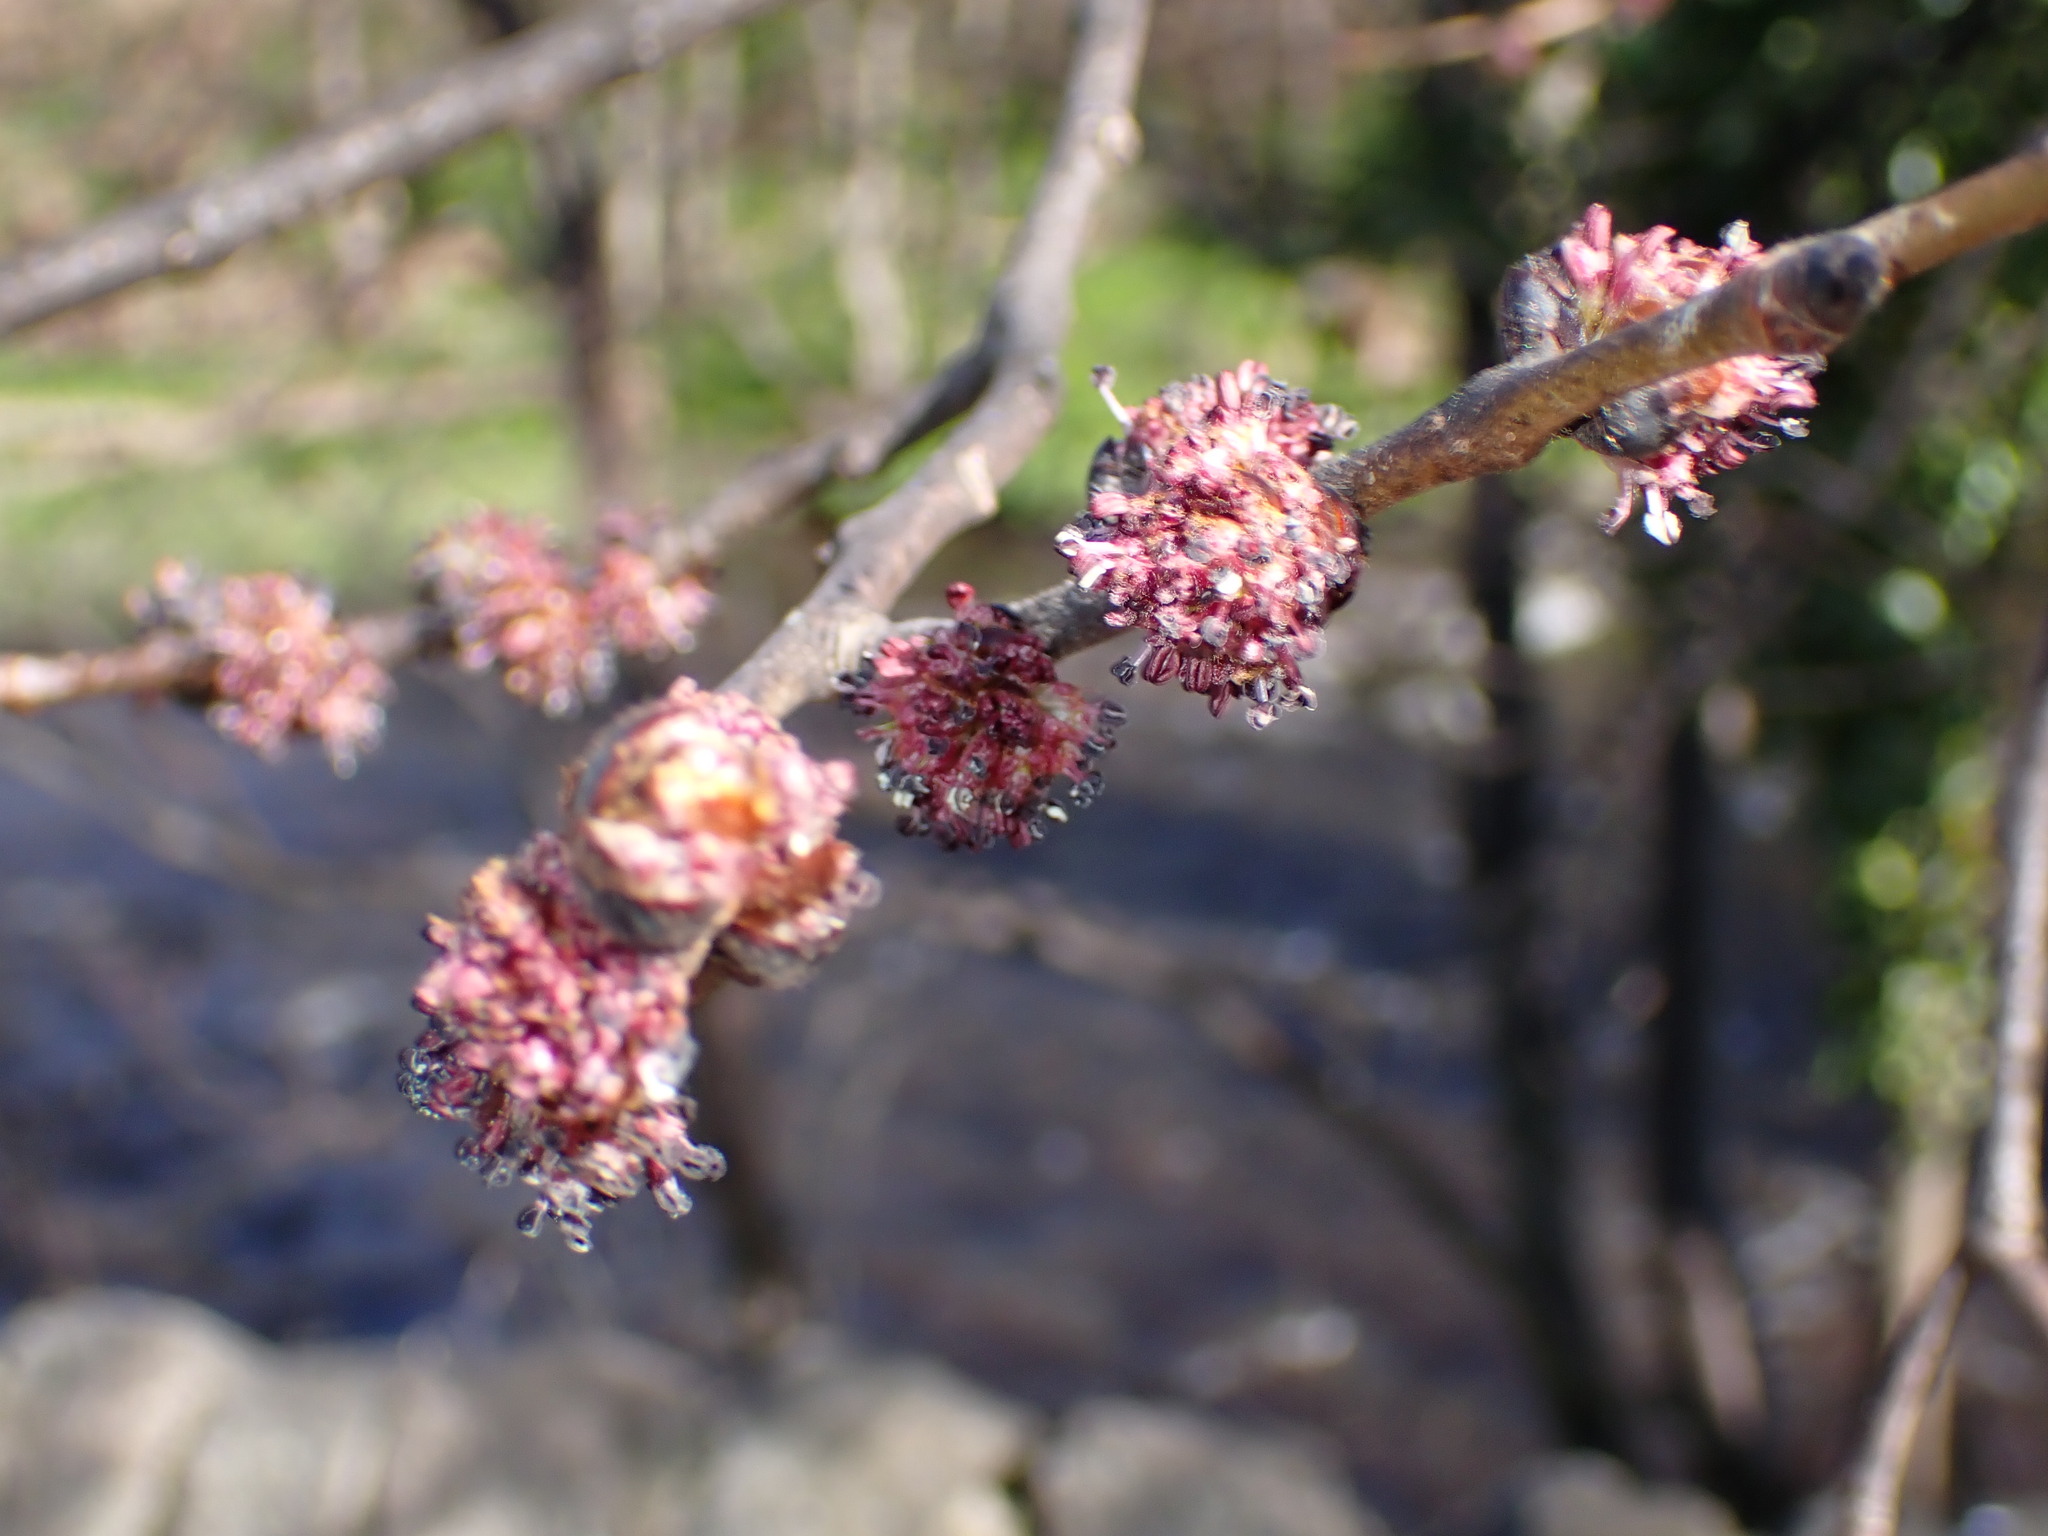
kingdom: Plantae
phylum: Tracheophyta
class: Magnoliopsida
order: Rosales
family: Ulmaceae
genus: Ulmus
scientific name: Ulmus glabra
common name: Wych elm
